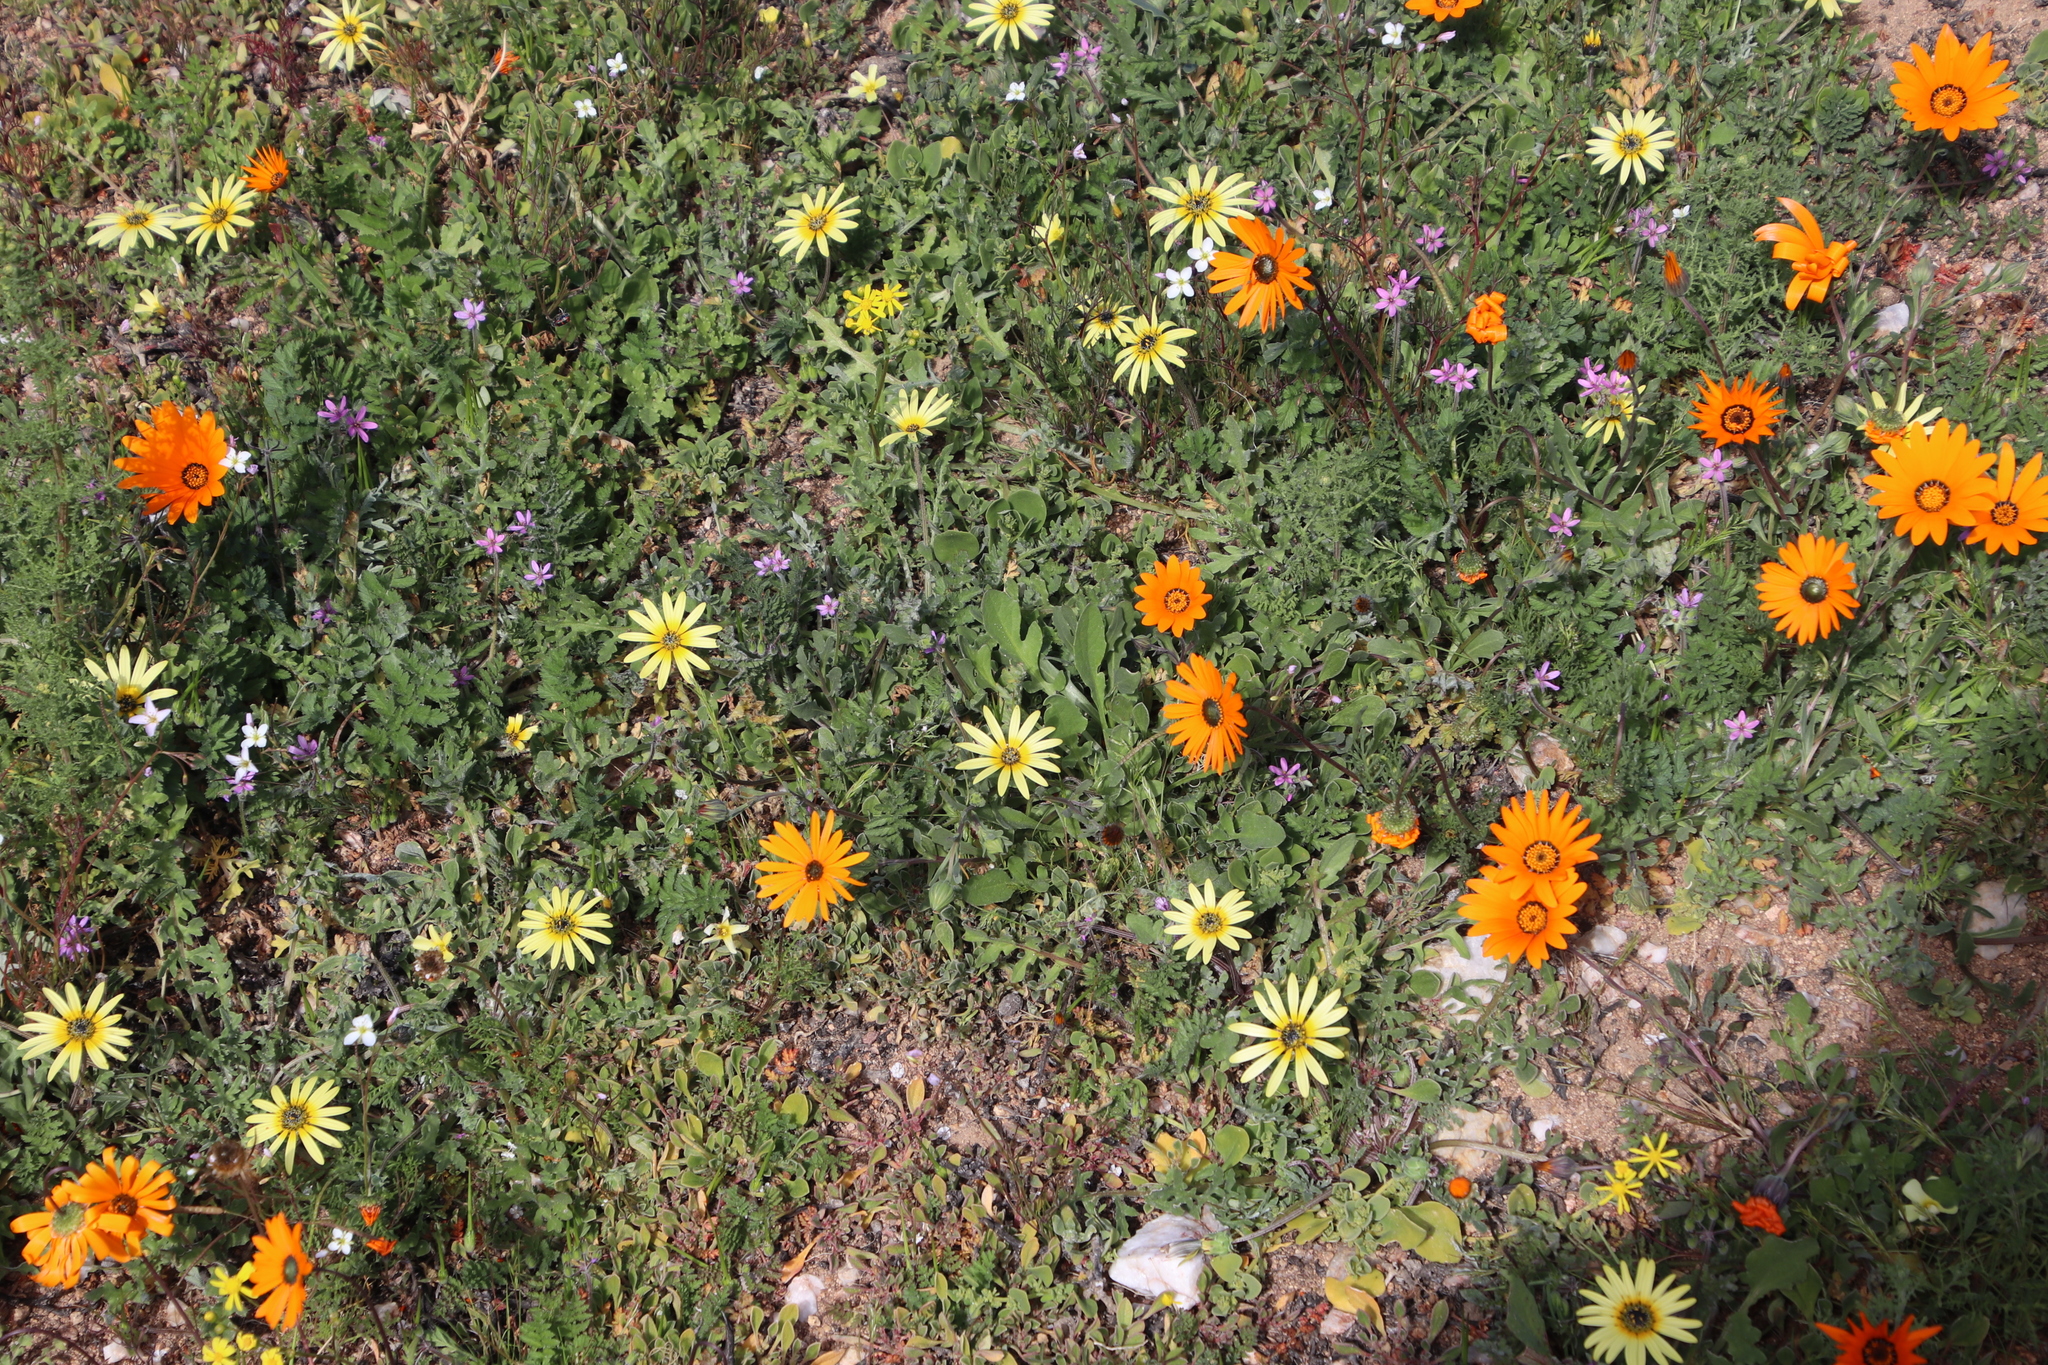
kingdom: Plantae
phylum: Tracheophyta
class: Magnoliopsida
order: Asterales
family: Asteraceae
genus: Arctotheca
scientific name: Arctotheca calendula
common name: Capeweed
